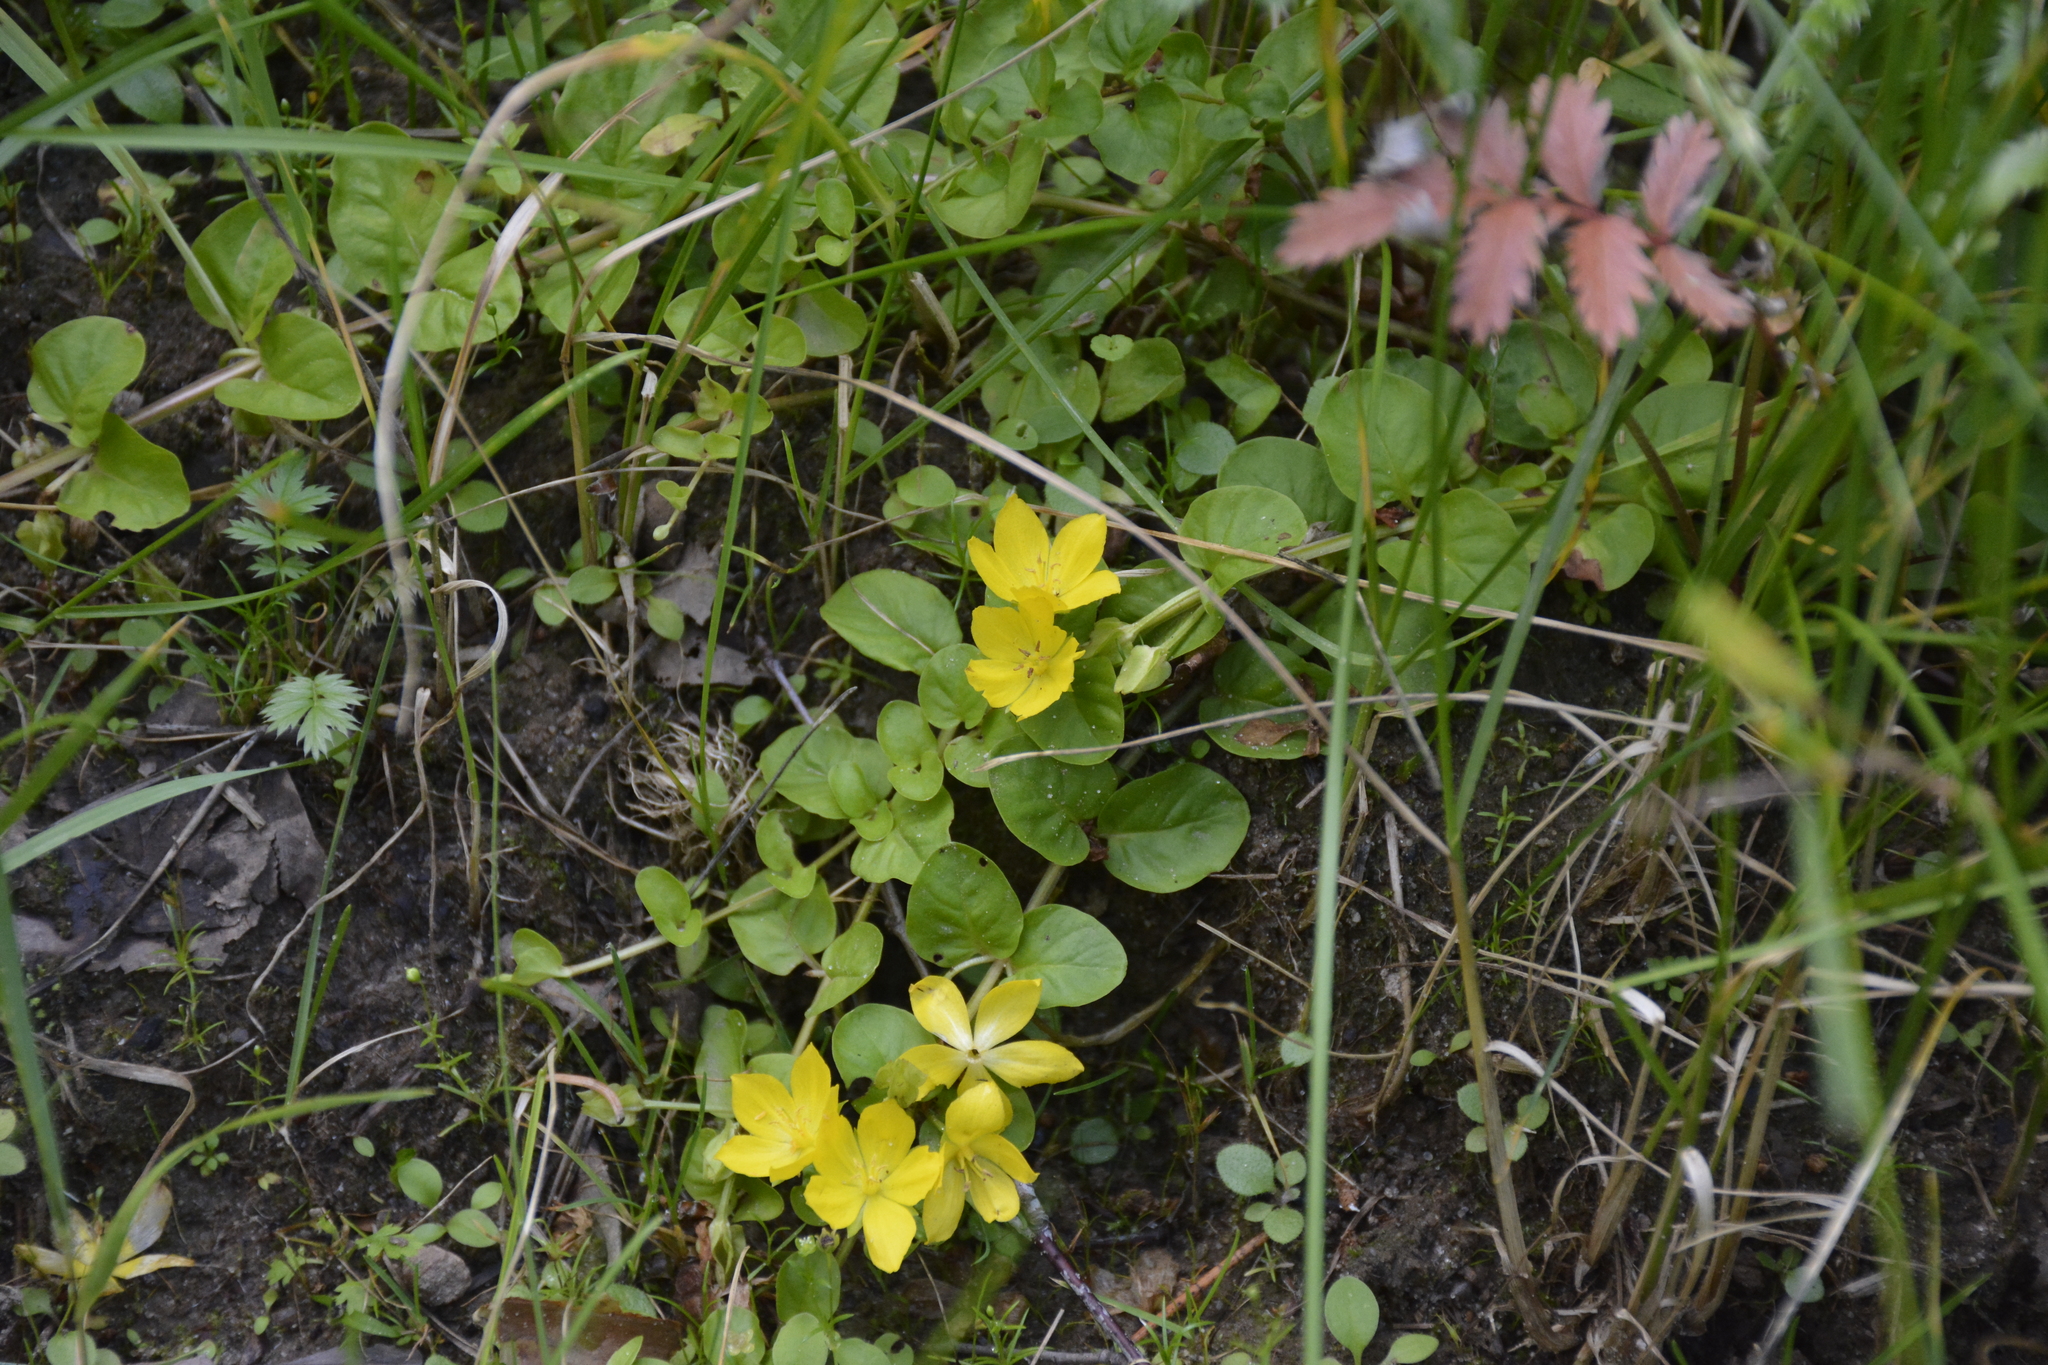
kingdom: Plantae
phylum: Tracheophyta
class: Magnoliopsida
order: Ericales
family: Primulaceae
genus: Lysimachia
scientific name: Lysimachia nummularia
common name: Moneywort
